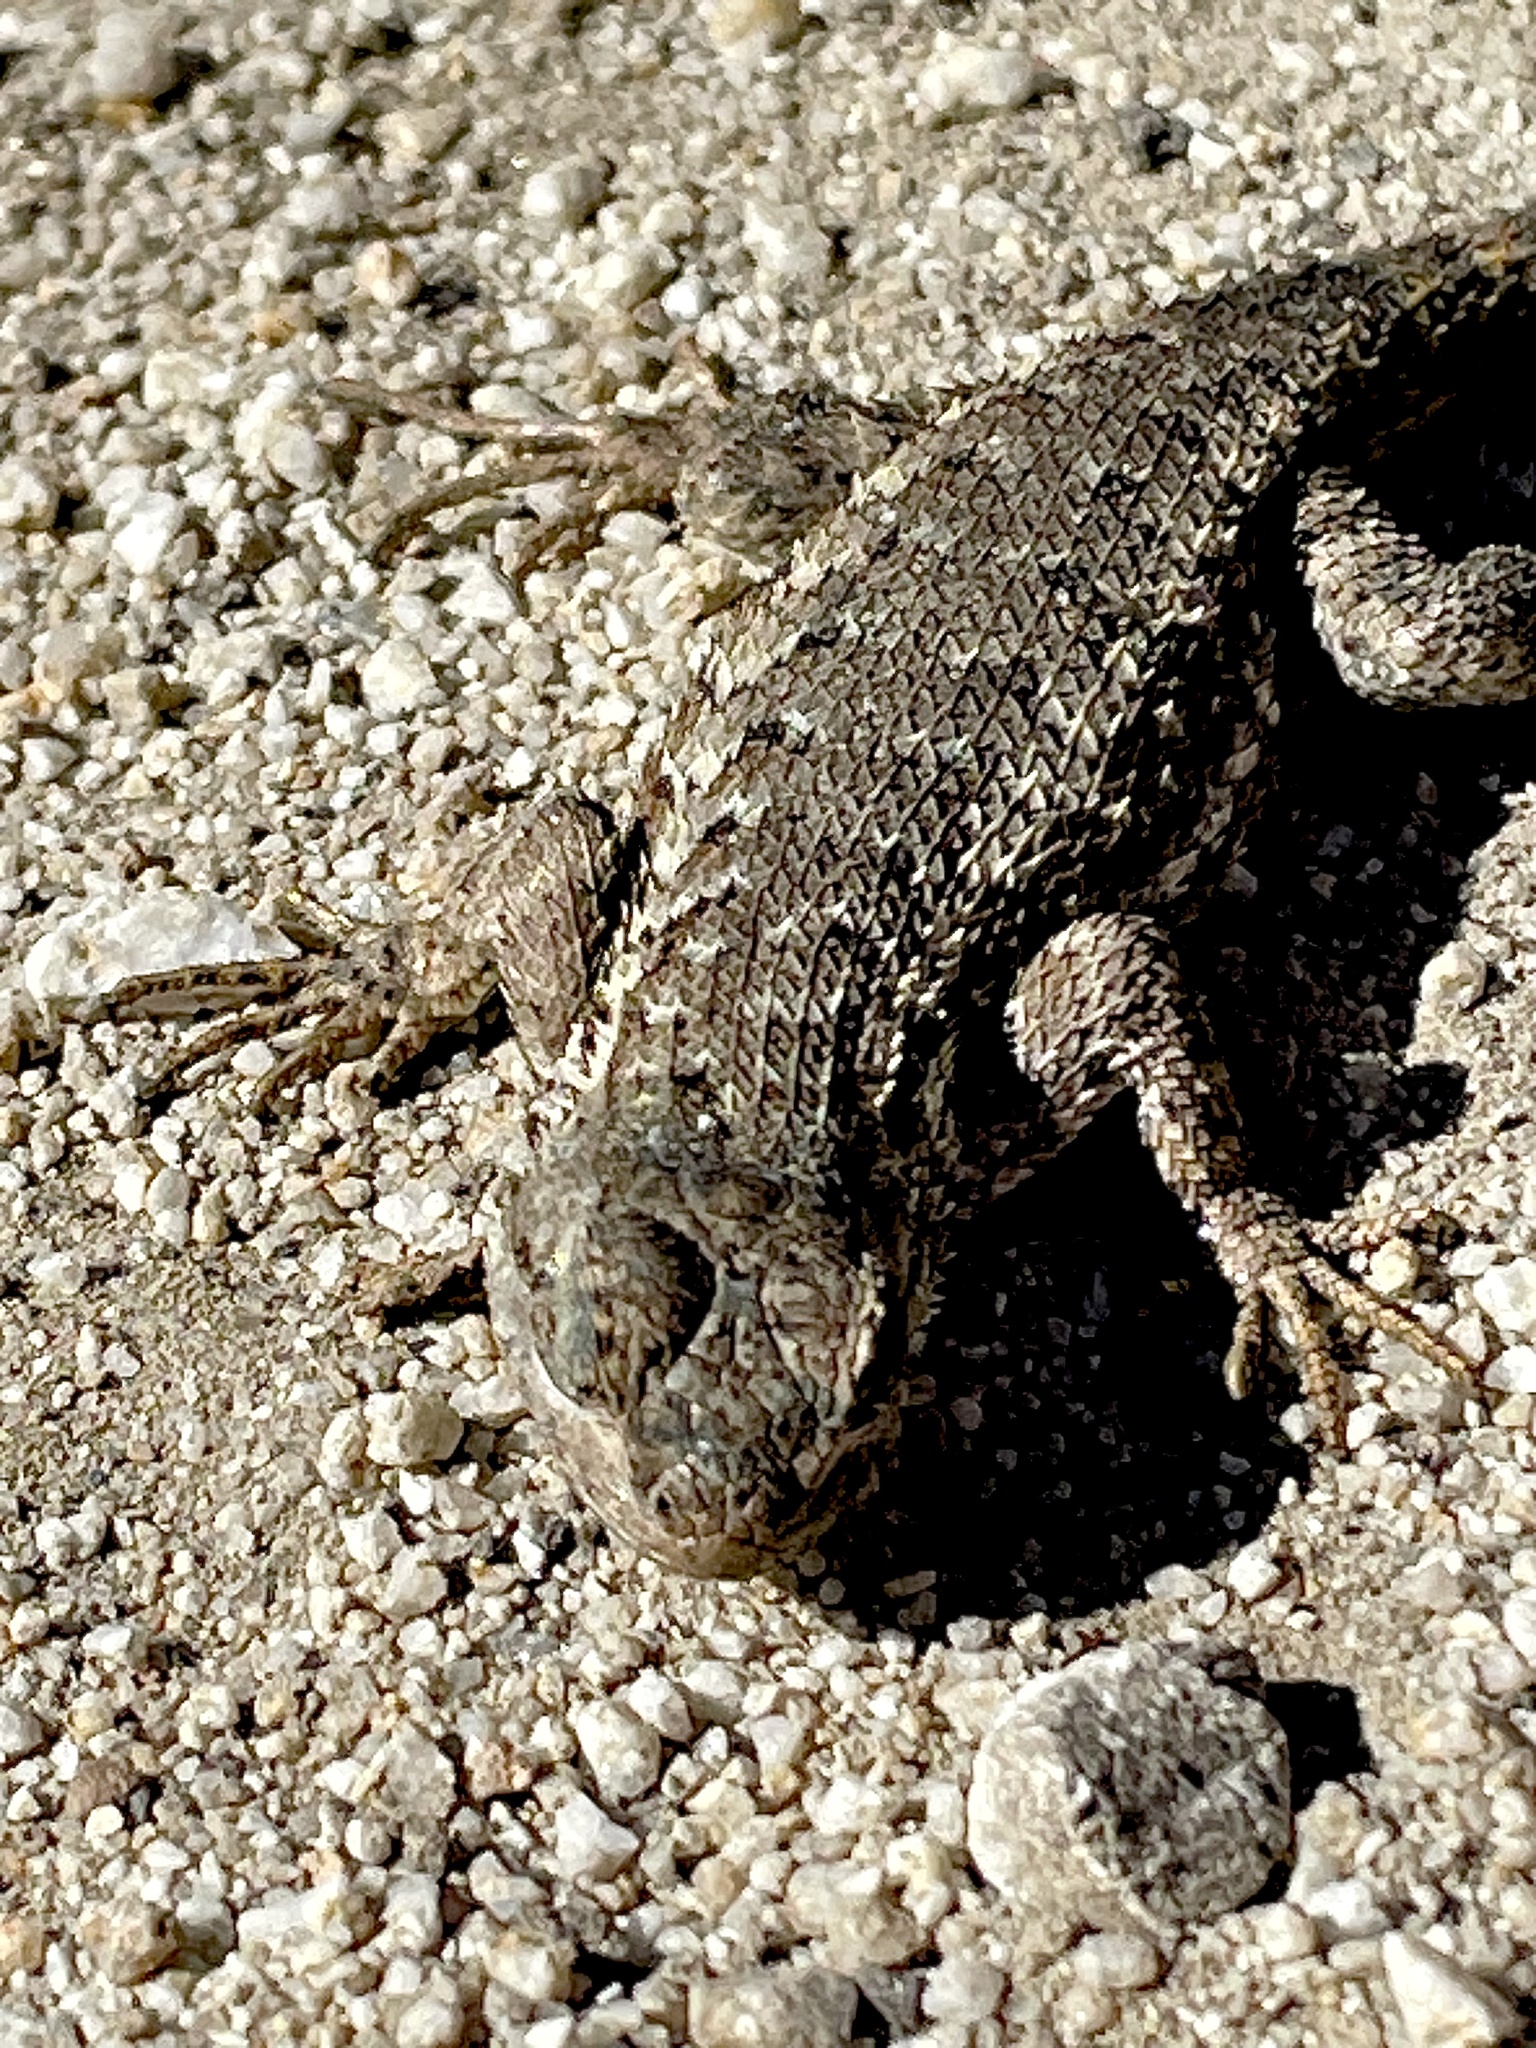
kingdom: Animalia
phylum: Chordata
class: Squamata
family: Phrynosomatidae
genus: Sceloporus
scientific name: Sceloporus occidentalis
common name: Western fence lizard
